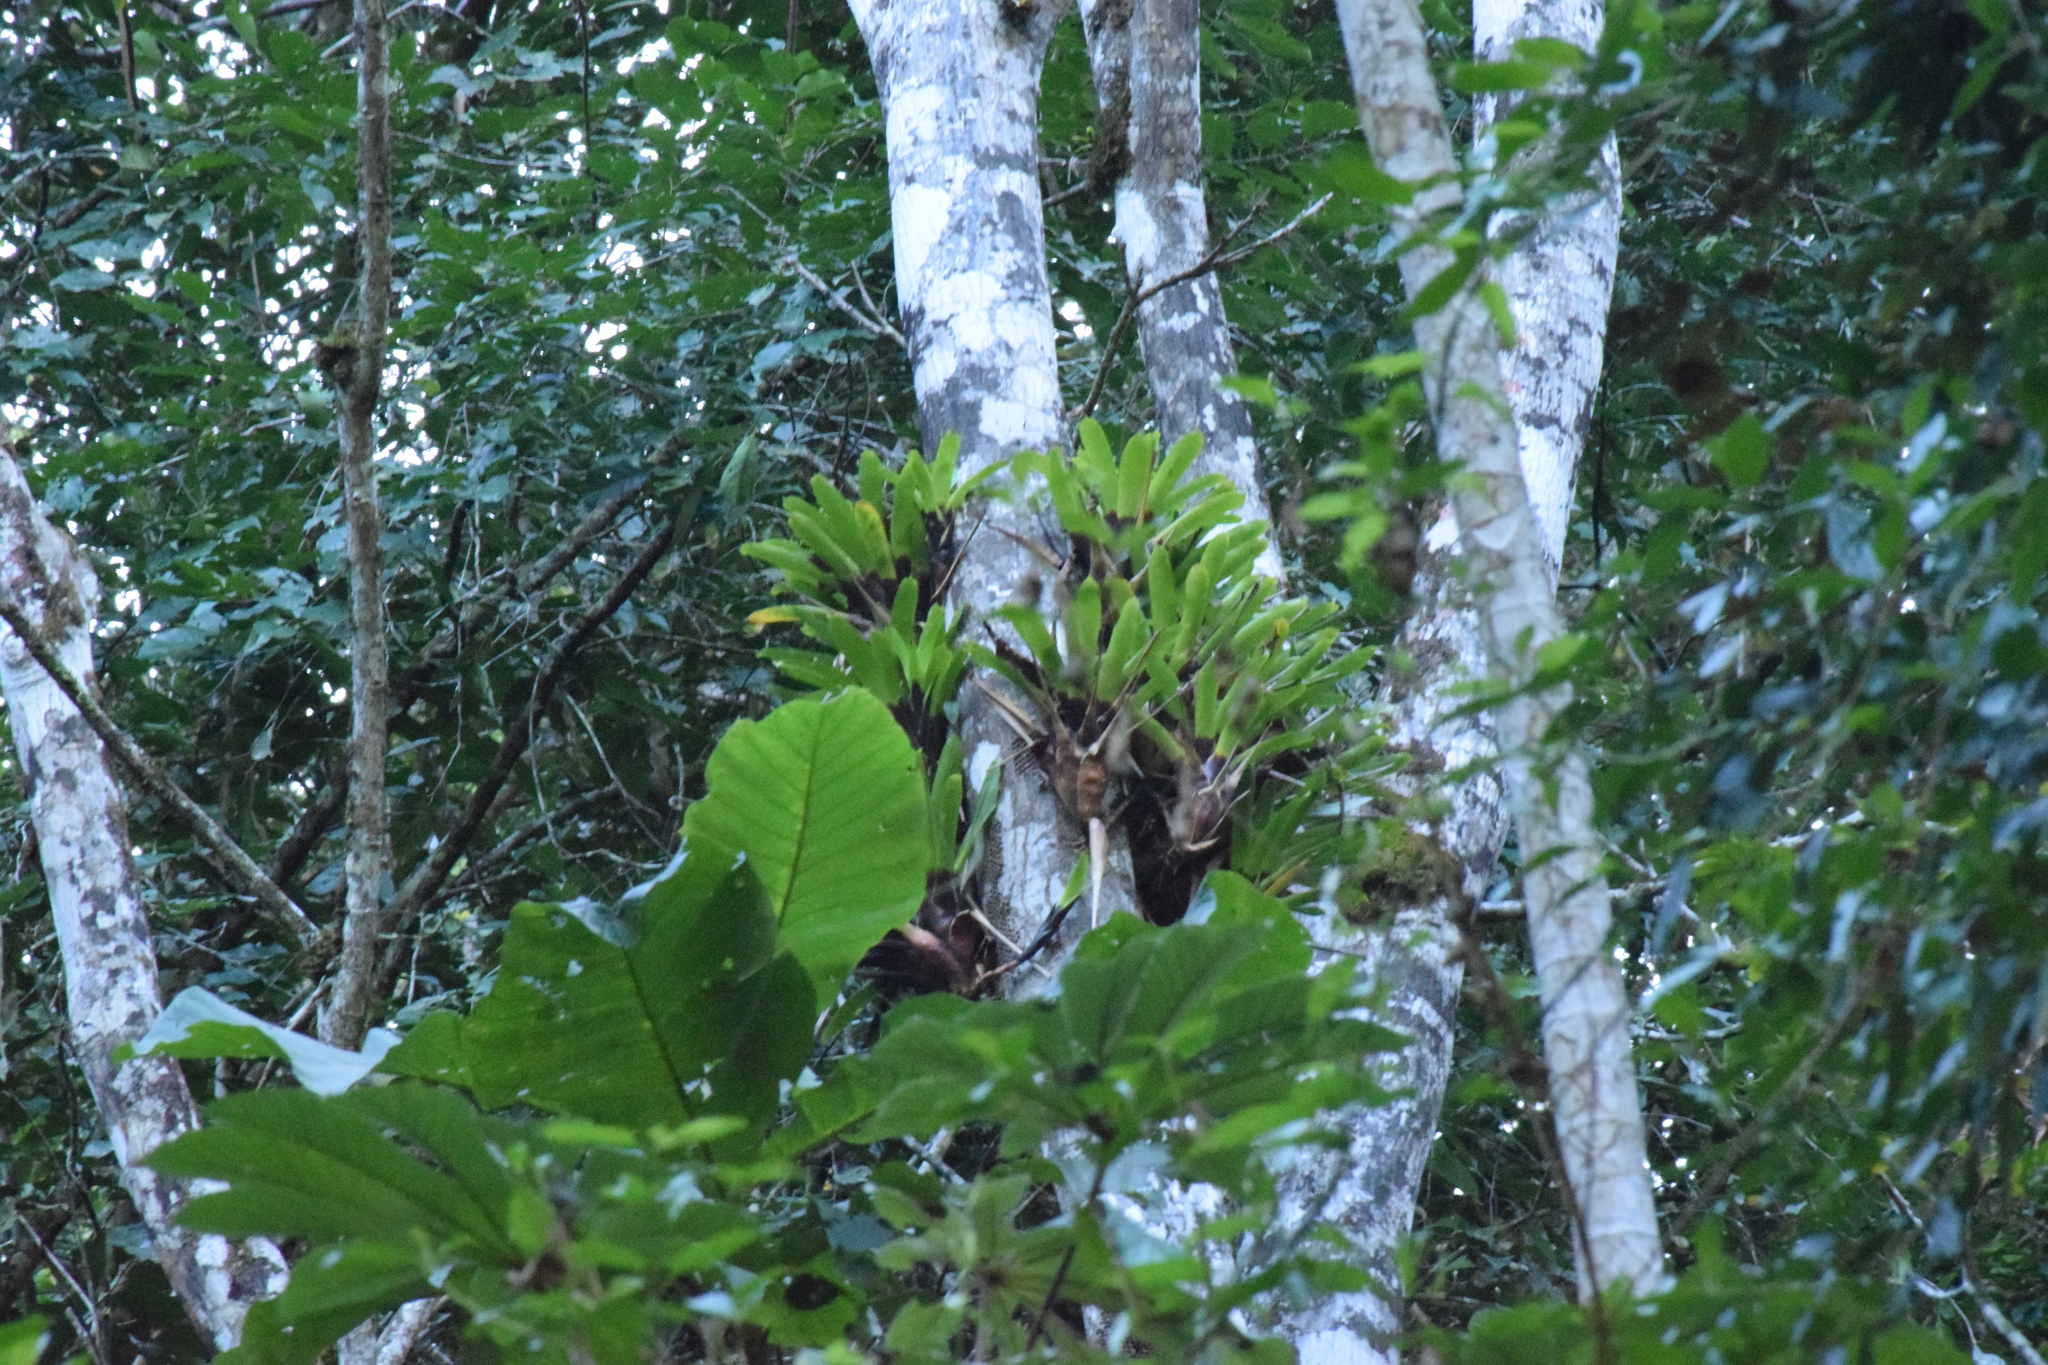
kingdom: Plantae
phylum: Tracheophyta
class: Liliopsida
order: Poales
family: Bromeliaceae
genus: Vriesea
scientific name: Vriesea vagans
